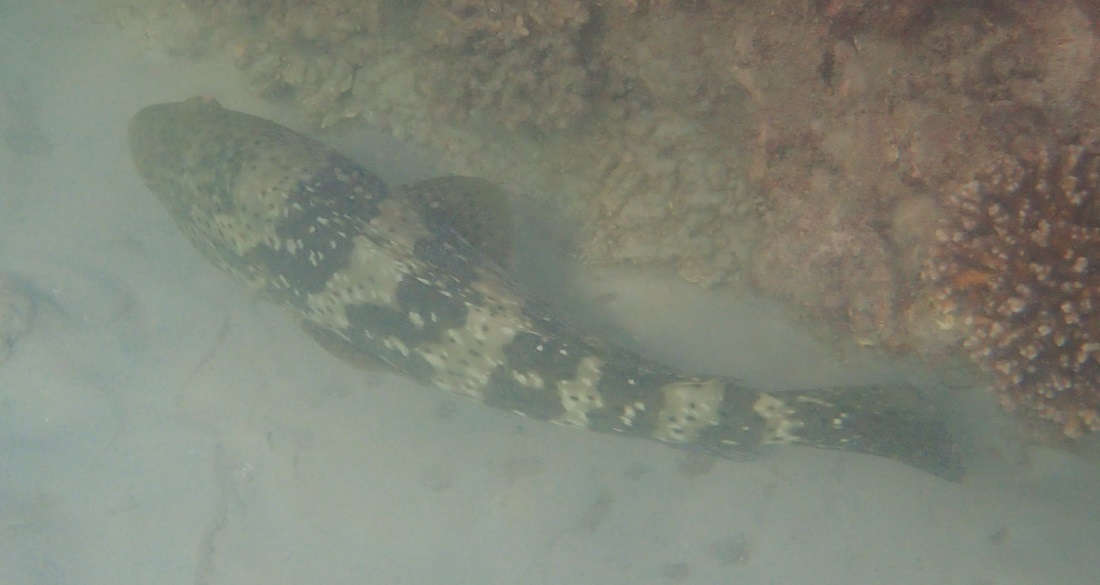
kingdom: Animalia
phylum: Chordata
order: Perciformes
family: Serranidae
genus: Epinephelus
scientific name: Epinephelus malabaricus
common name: Malabar grouper
